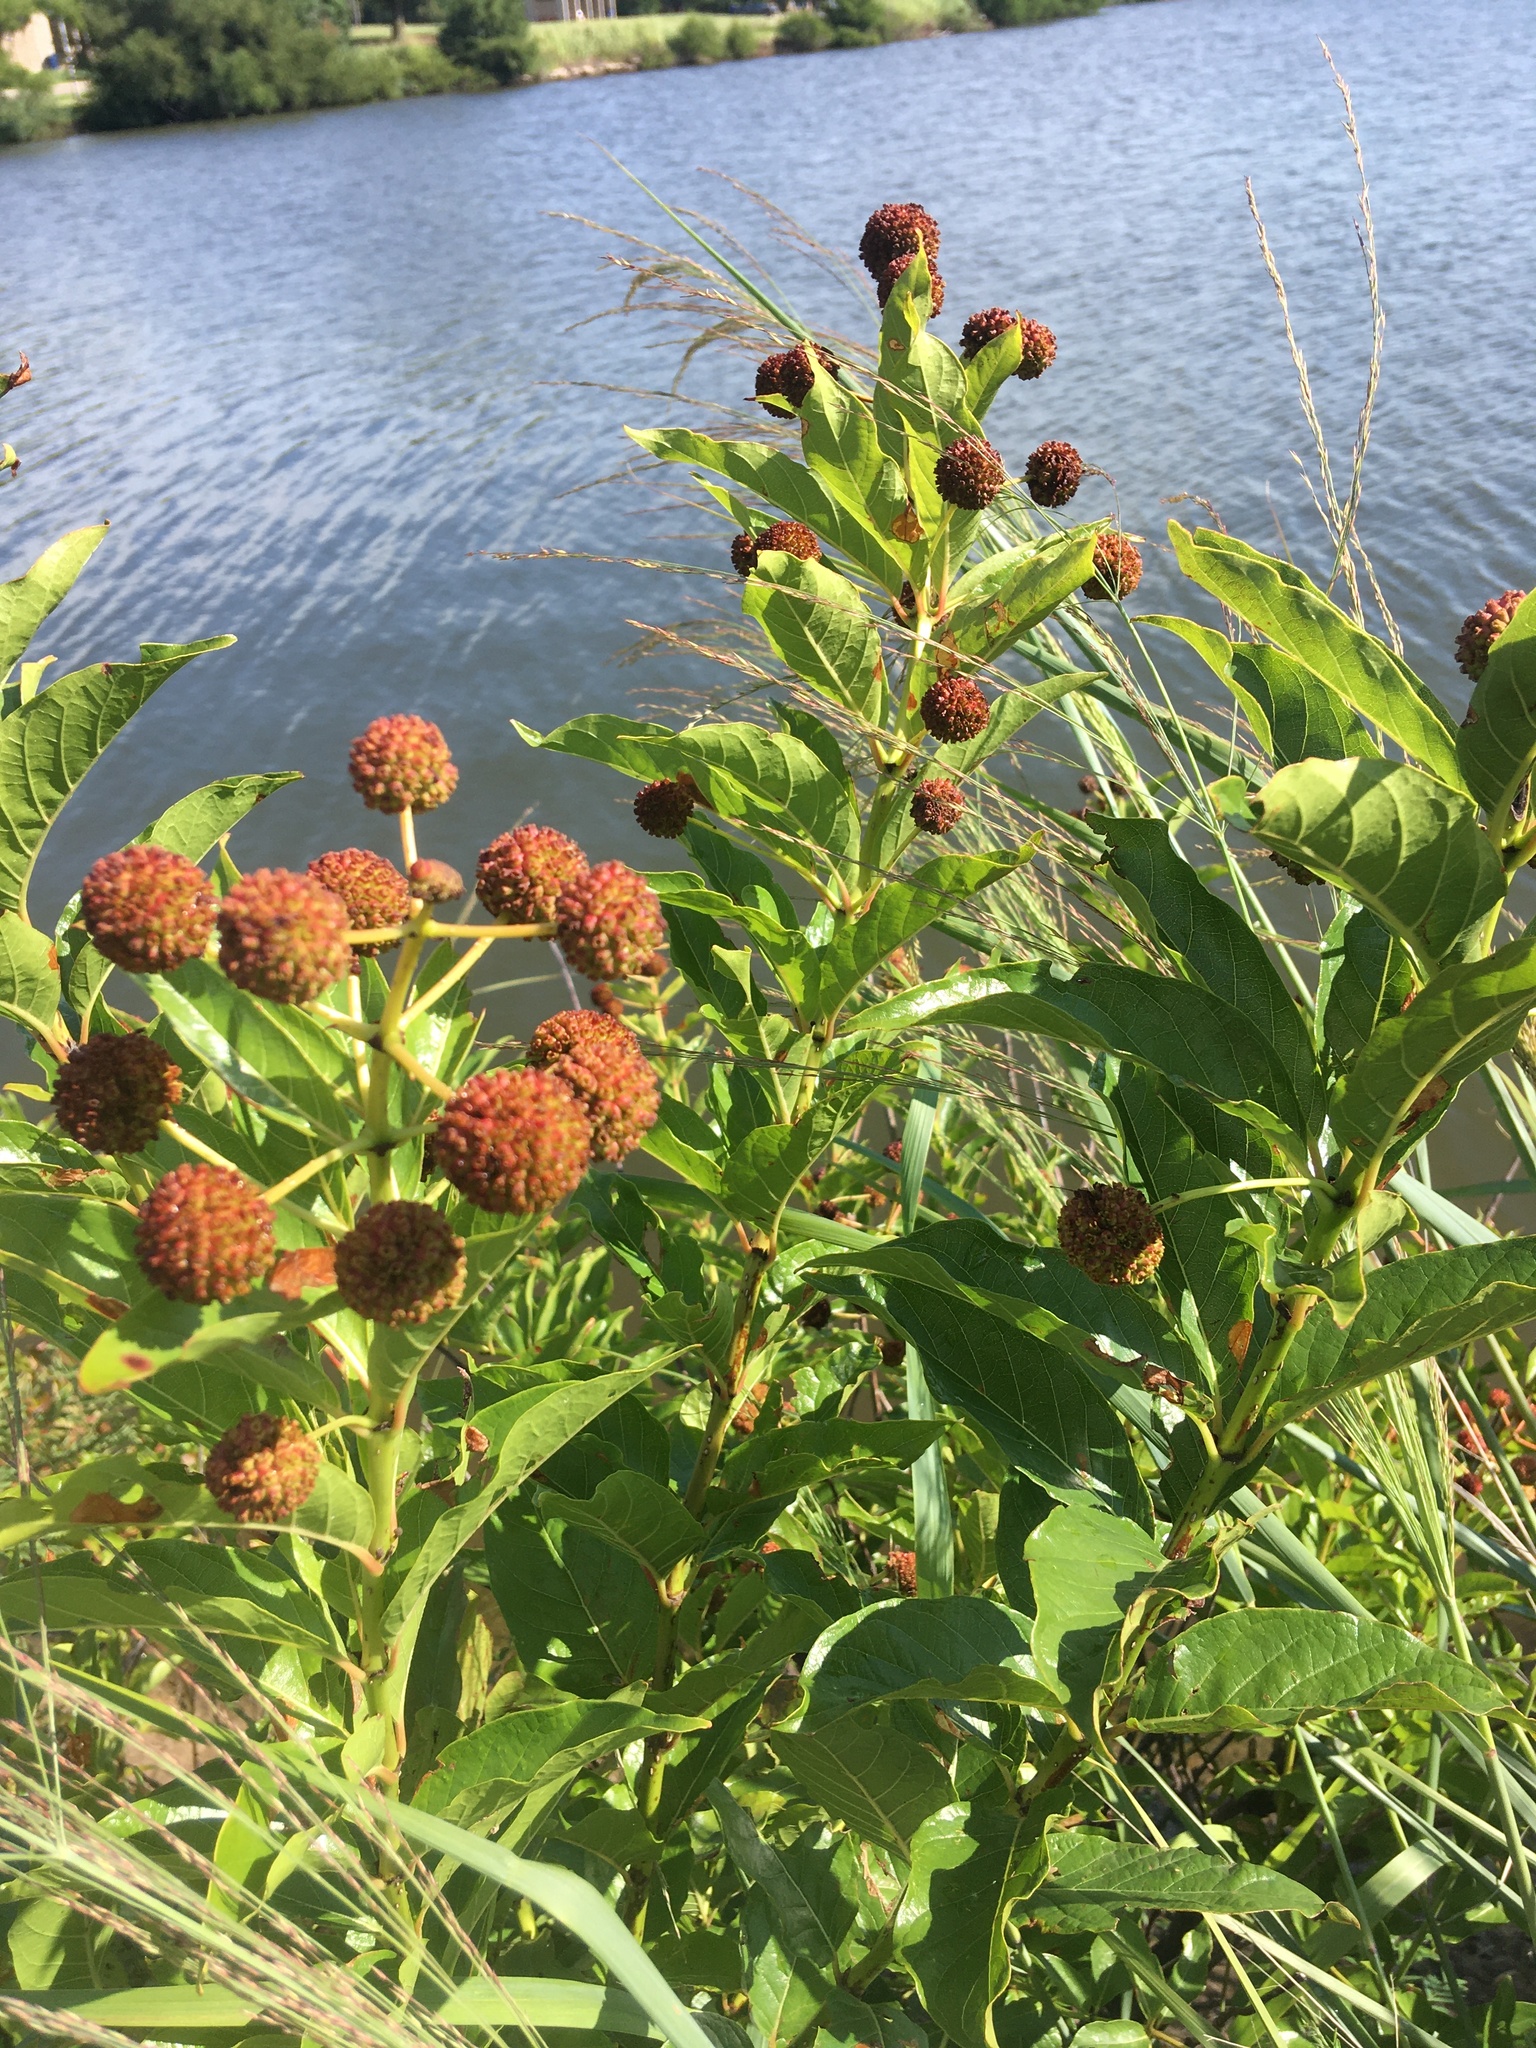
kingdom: Plantae
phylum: Tracheophyta
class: Magnoliopsida
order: Gentianales
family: Rubiaceae
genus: Cephalanthus
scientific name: Cephalanthus occidentalis
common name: Button-willow
